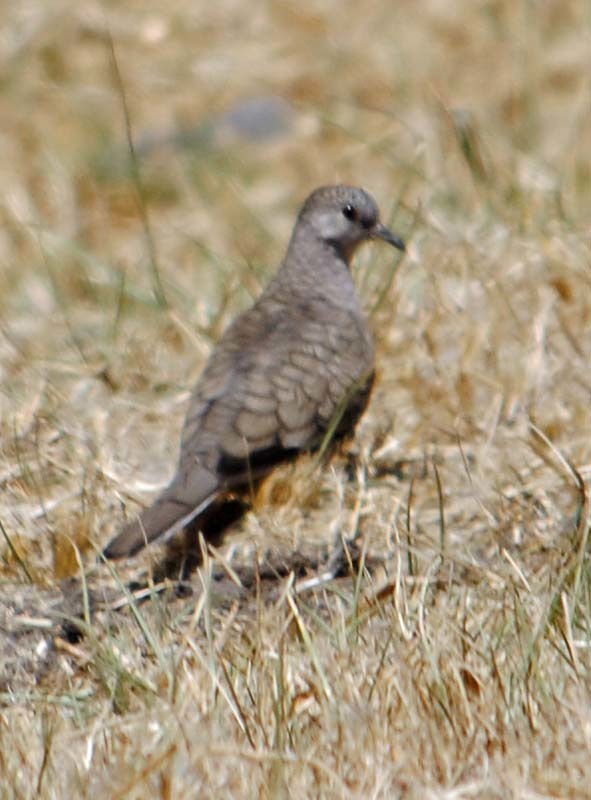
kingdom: Animalia
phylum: Chordata
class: Aves
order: Columbiformes
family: Columbidae
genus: Columbina
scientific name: Columbina inca
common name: Inca dove
